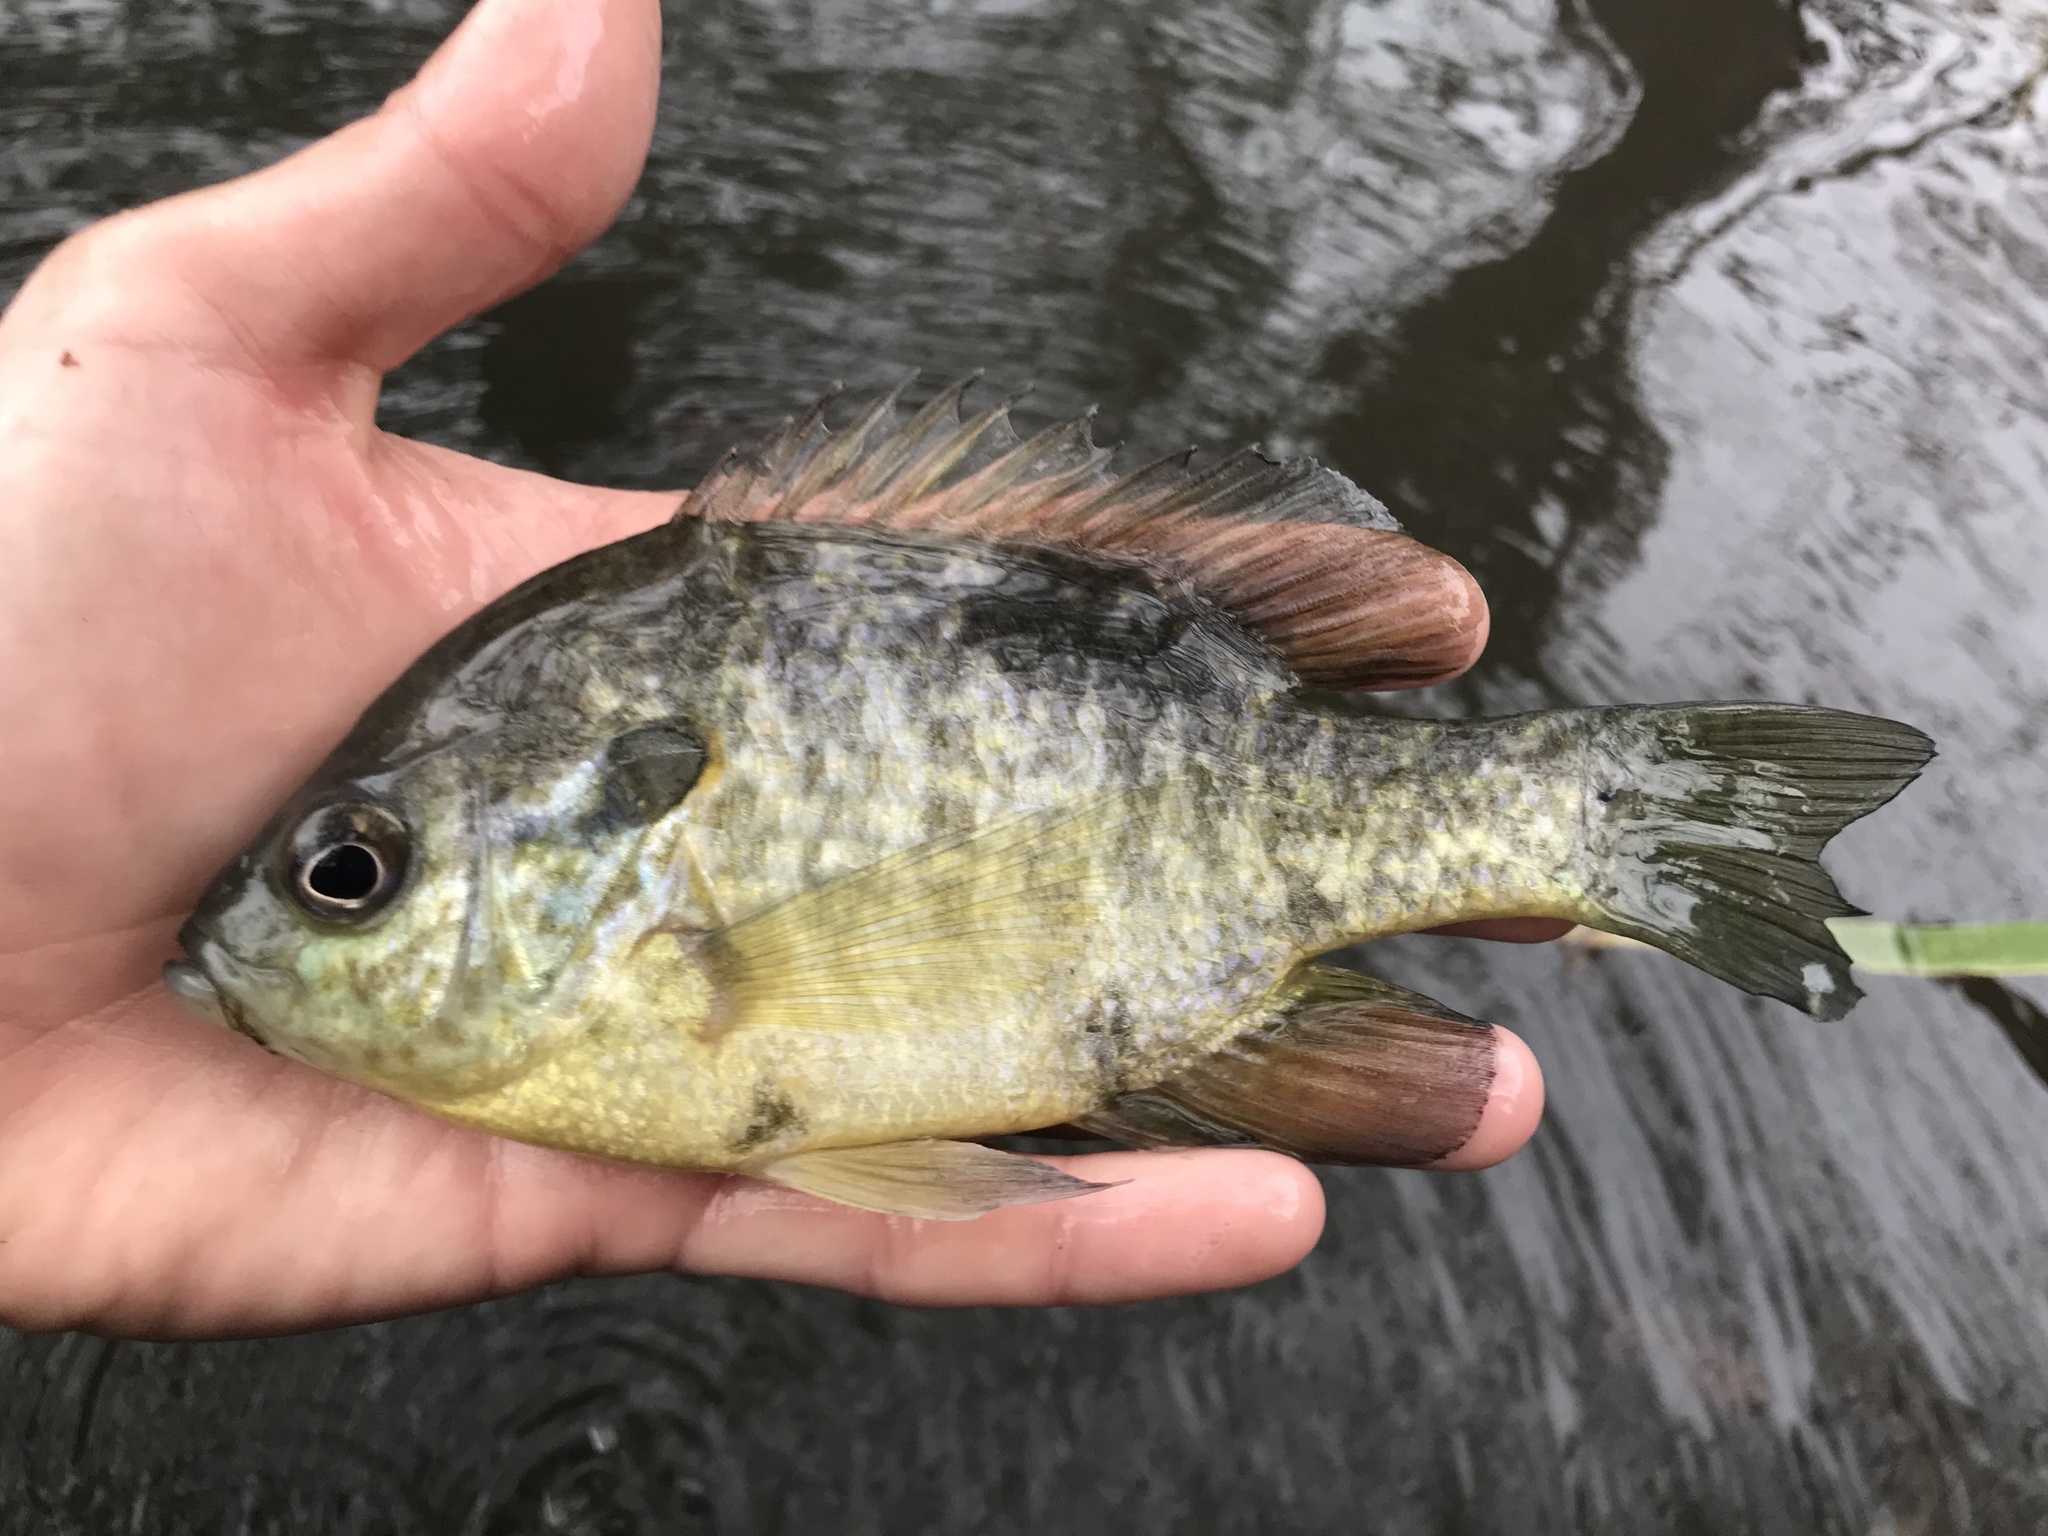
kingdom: Animalia
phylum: Chordata
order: Perciformes
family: Centrarchidae
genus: Lepomis
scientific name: Lepomis microlophus
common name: Redear sunfish
